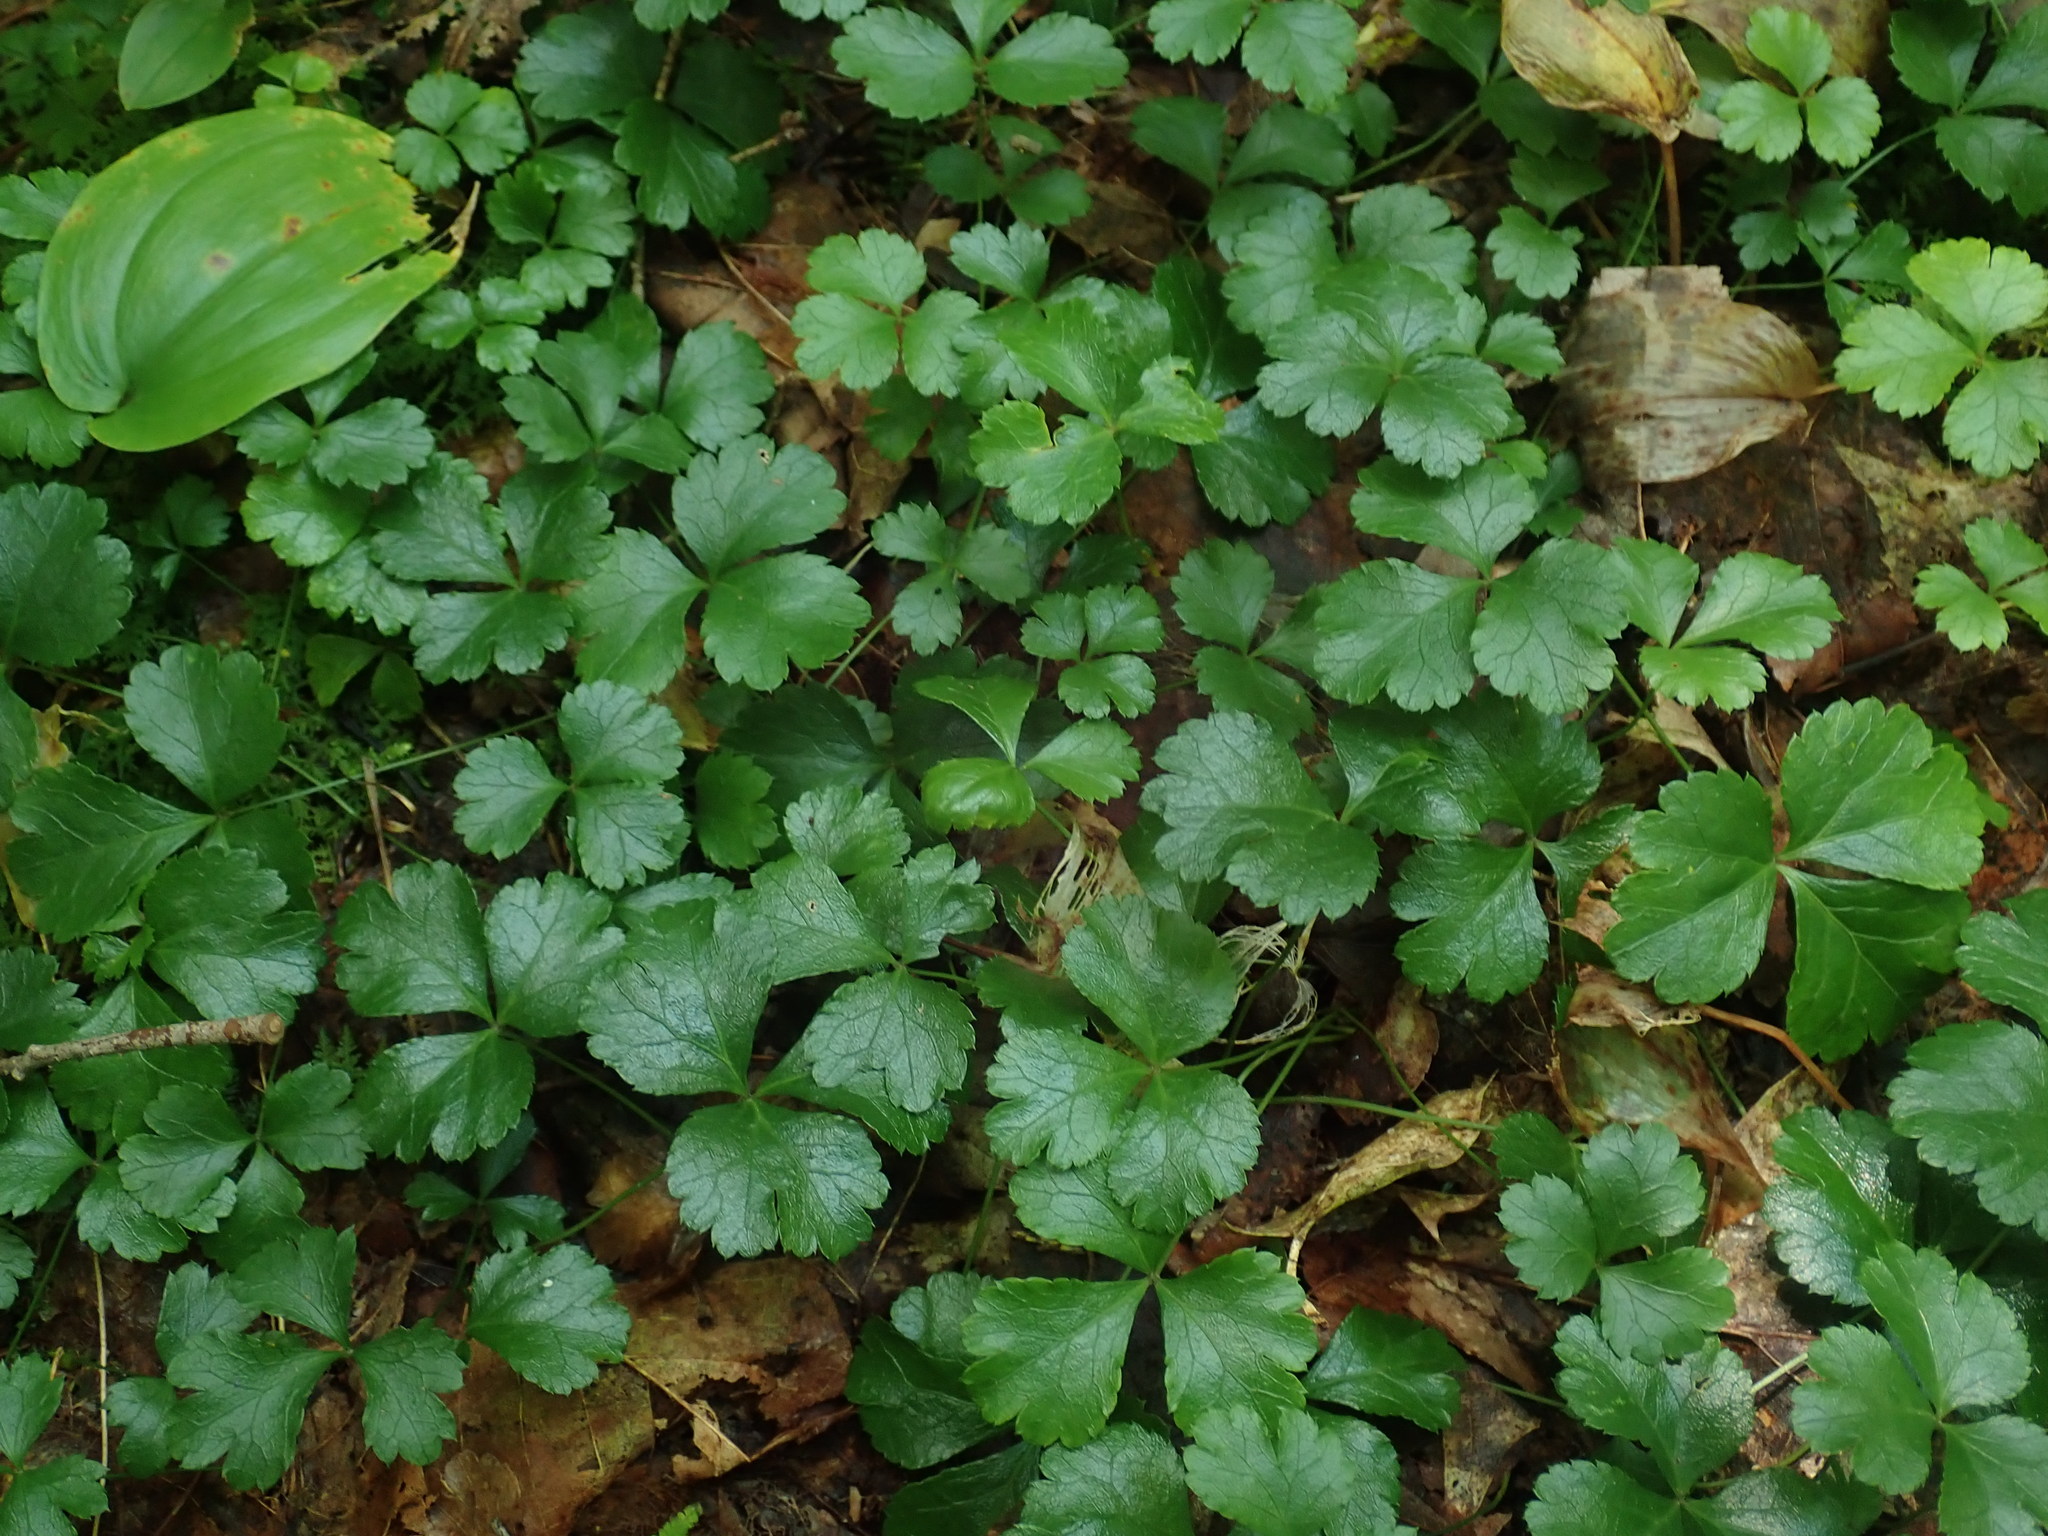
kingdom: Plantae
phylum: Tracheophyta
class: Magnoliopsida
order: Ranunculales
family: Ranunculaceae
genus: Coptis
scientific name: Coptis trifolia
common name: Canker-root
